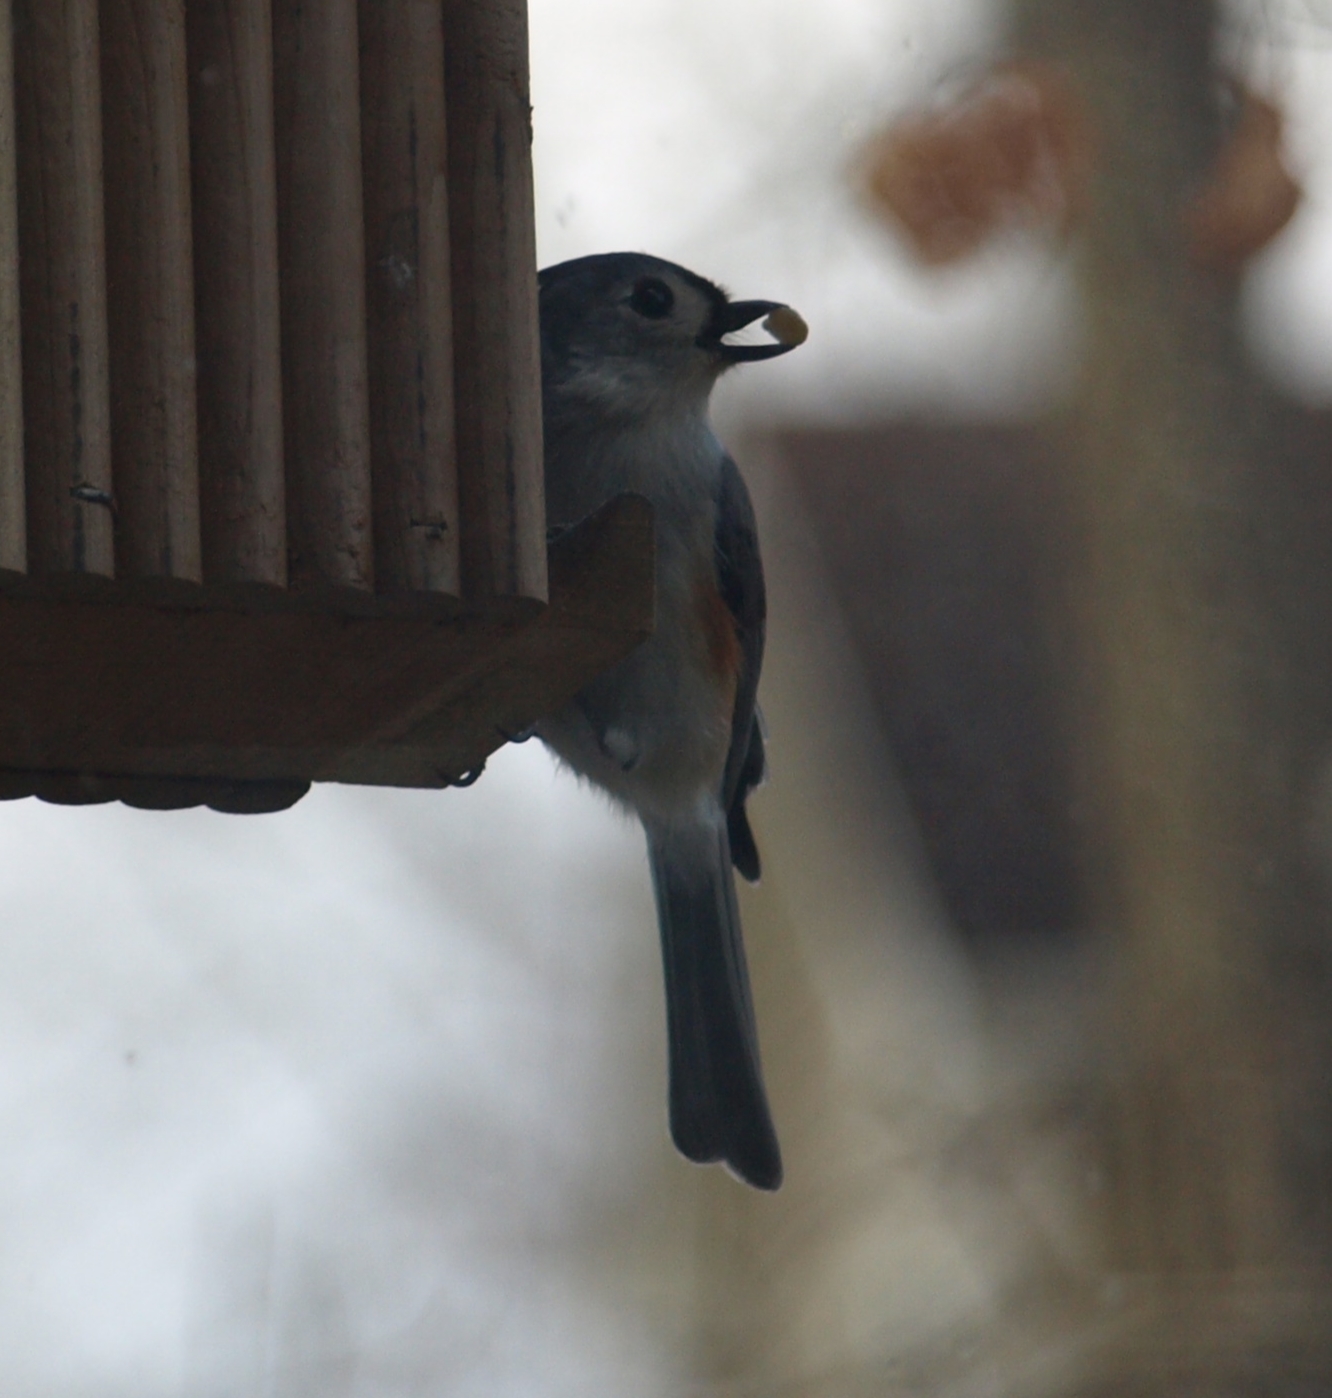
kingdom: Animalia
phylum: Chordata
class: Aves
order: Passeriformes
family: Paridae
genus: Baeolophus
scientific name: Baeolophus bicolor
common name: Tufted titmouse
